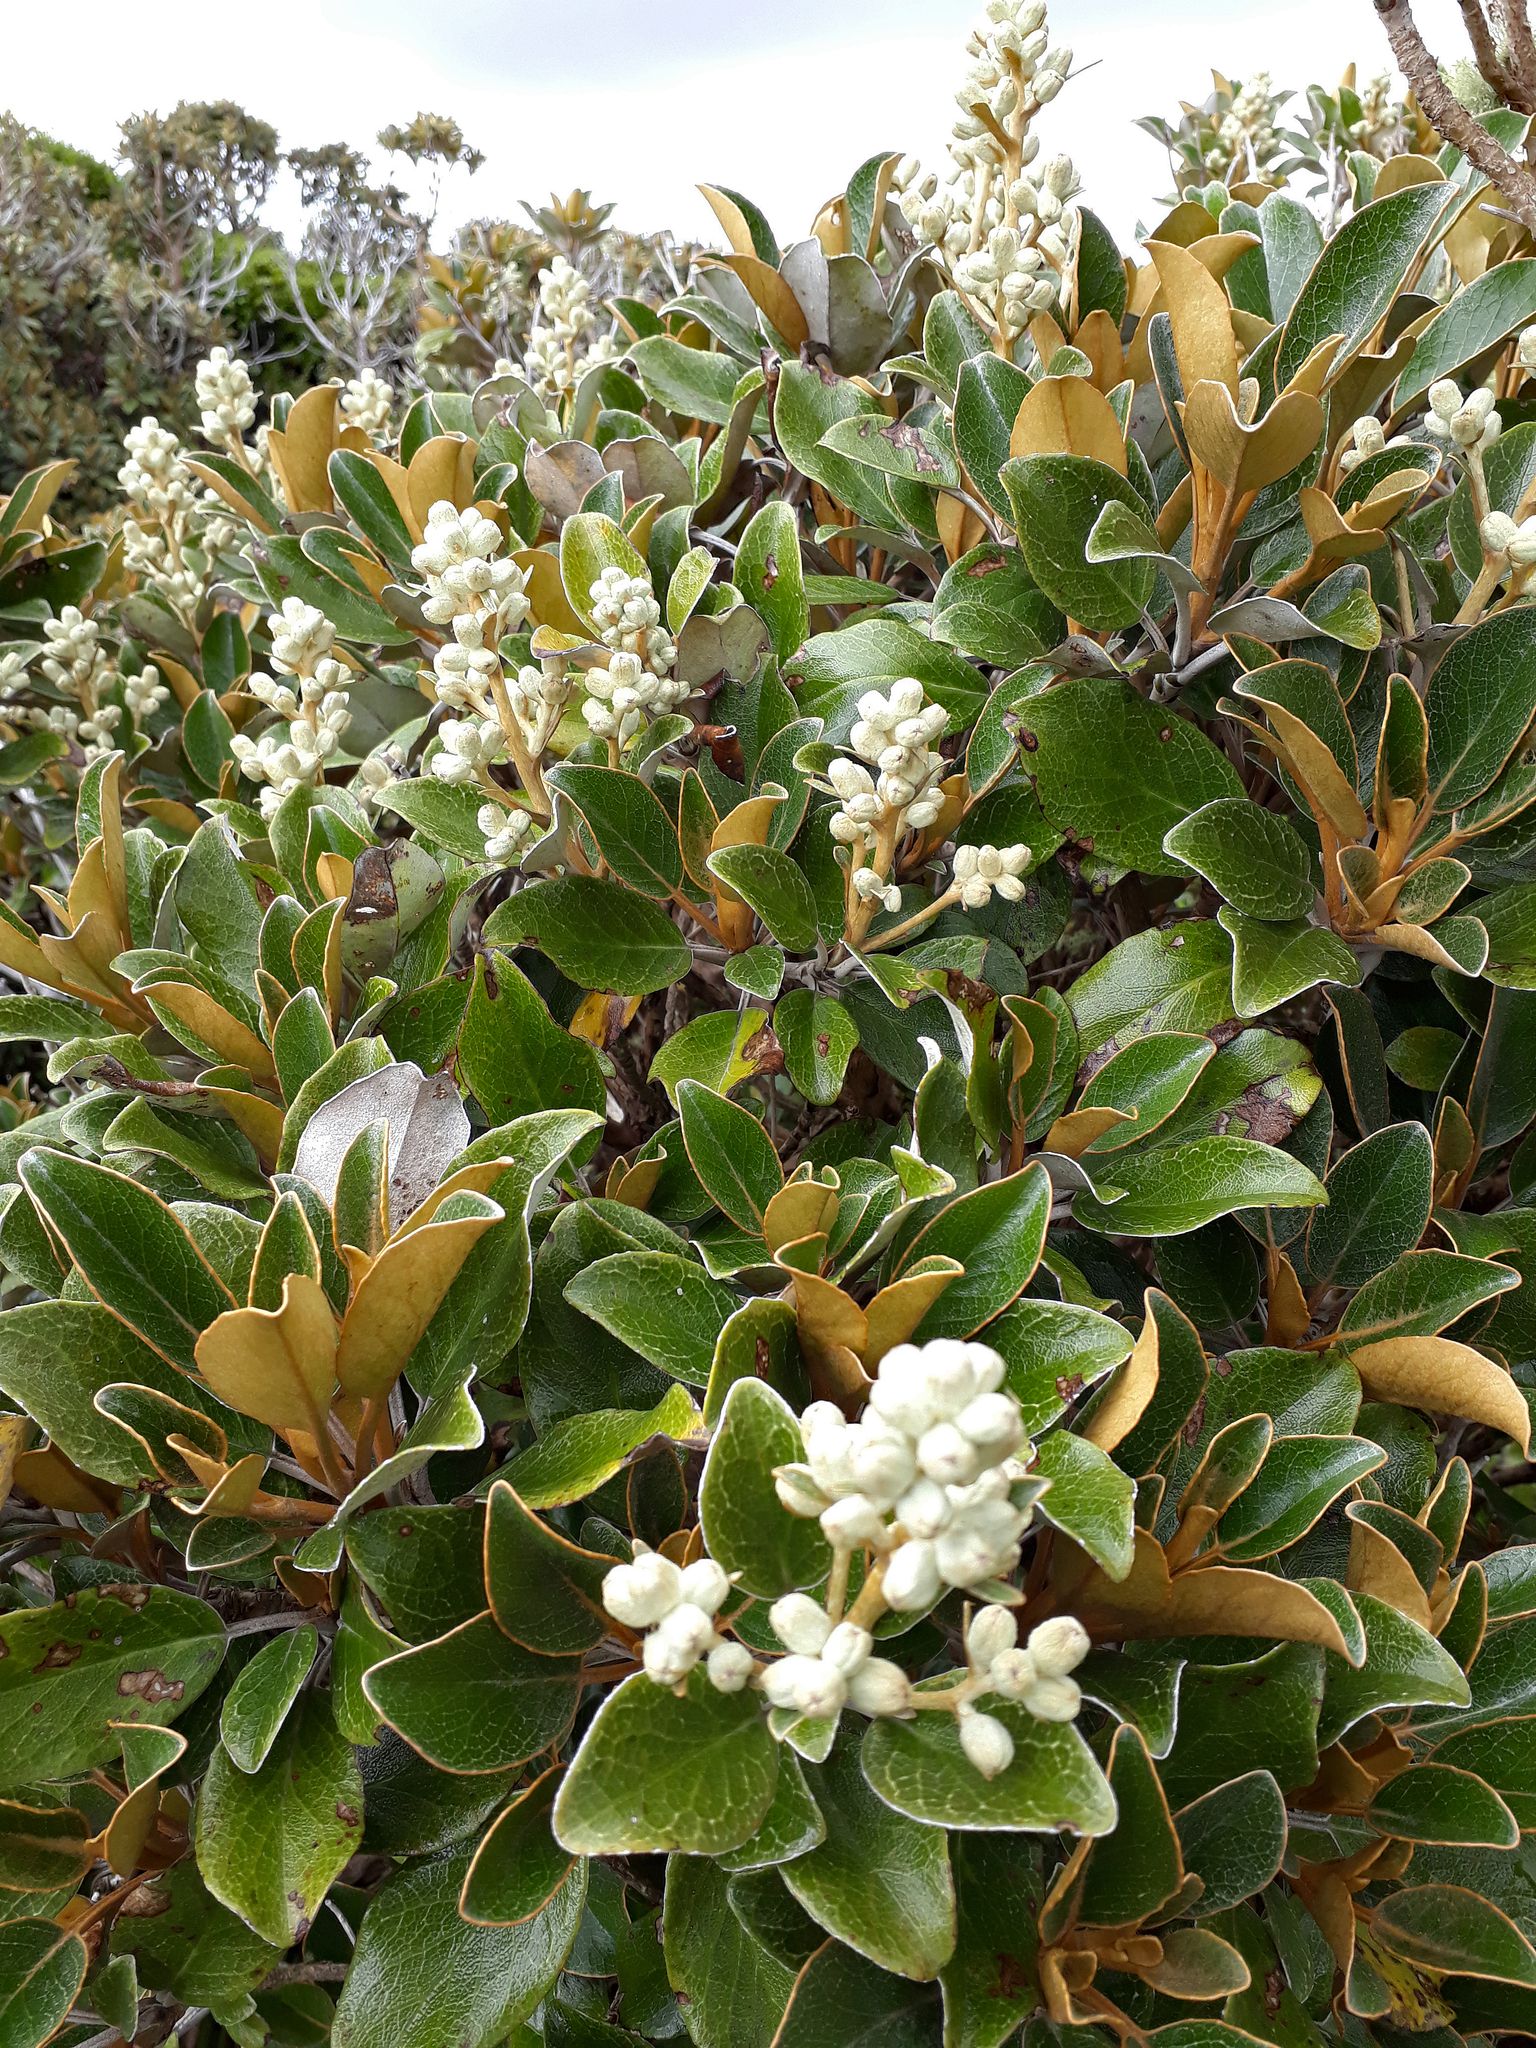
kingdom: Plantae
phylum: Tracheophyta
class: Magnoliopsida
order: Asterales
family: Asteraceae
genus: Brachyglottis
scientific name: Brachyglottis elaeagnifolia
